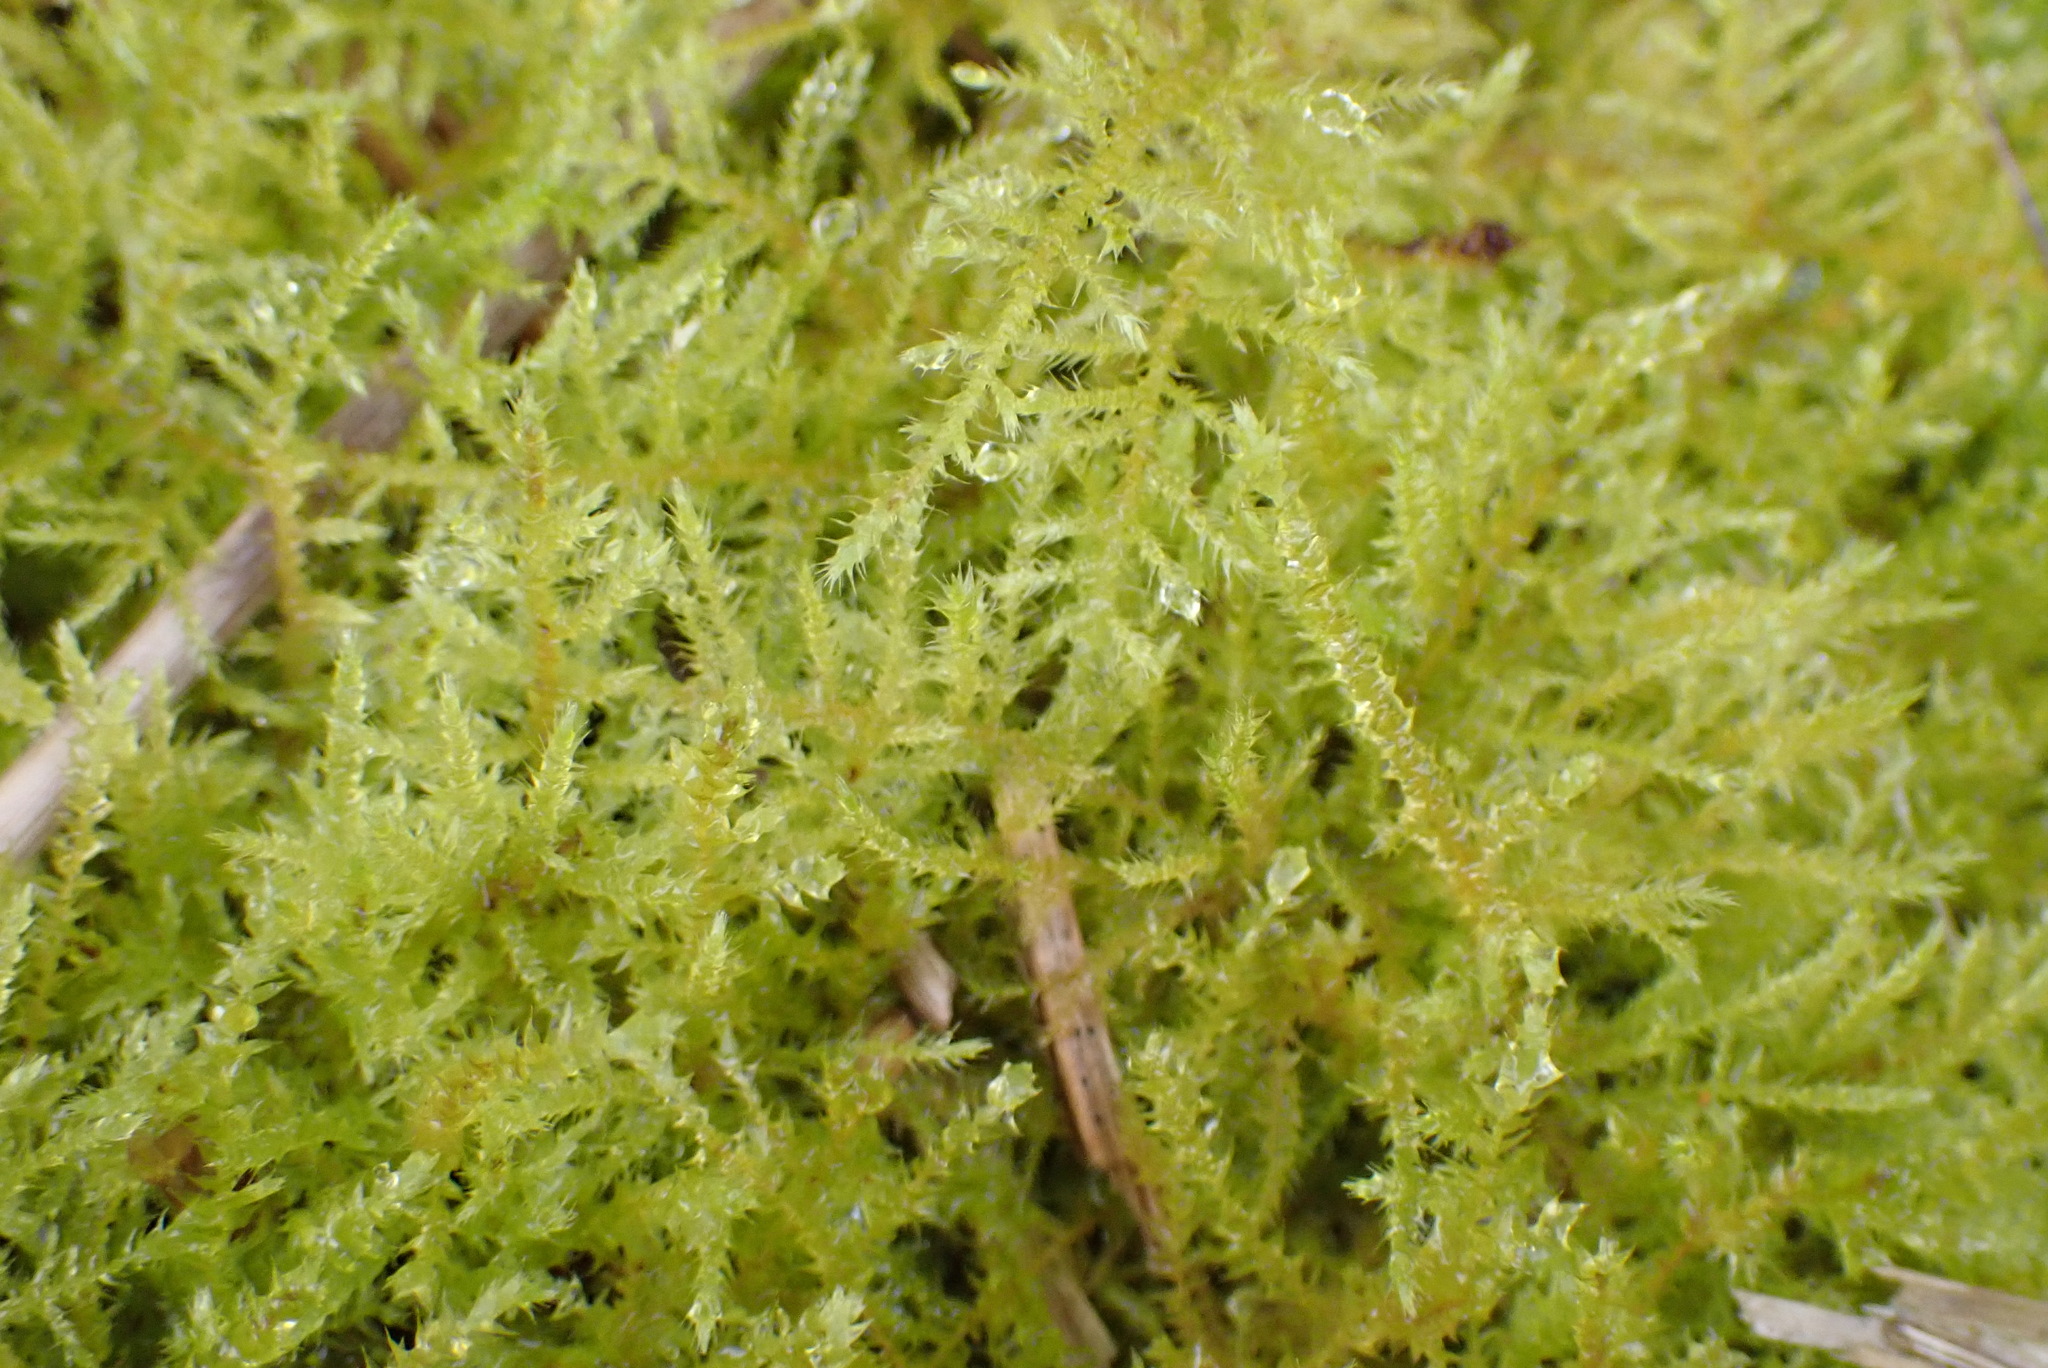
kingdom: Plantae
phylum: Bryophyta
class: Bryopsida
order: Hypnales
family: Brachytheciaceae
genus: Kindbergia
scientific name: Kindbergia praelonga
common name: Slender beaked moss
